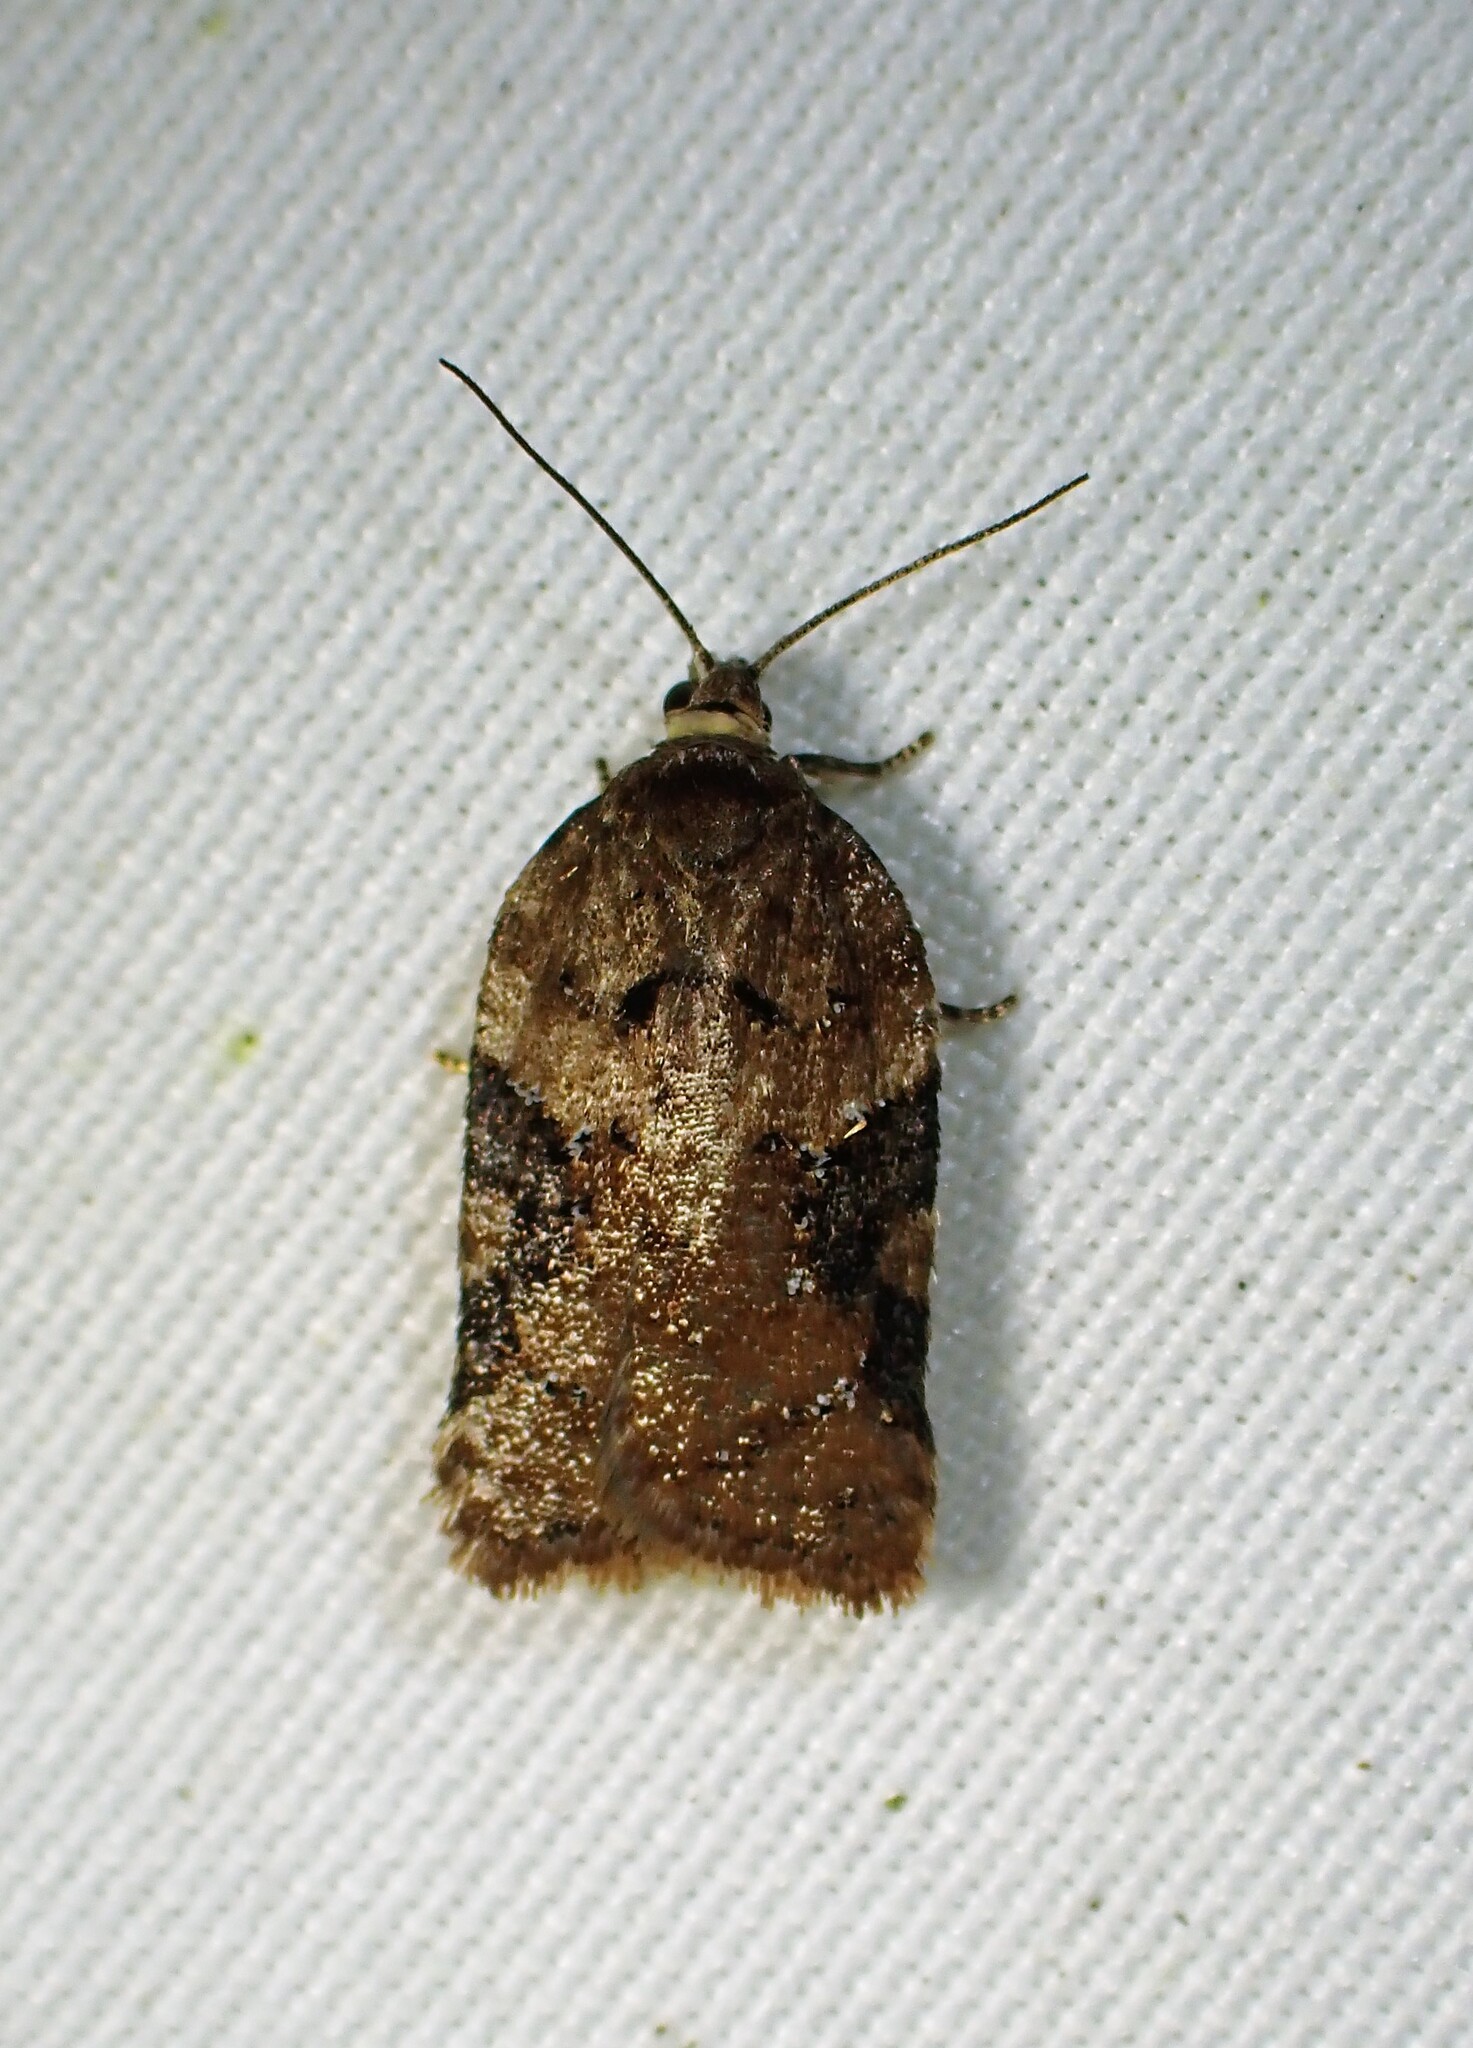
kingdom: Animalia
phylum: Arthropoda
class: Insecta
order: Lepidoptera
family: Tortricidae
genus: Acleris
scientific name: Acleris braunana
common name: Alder leafroller
